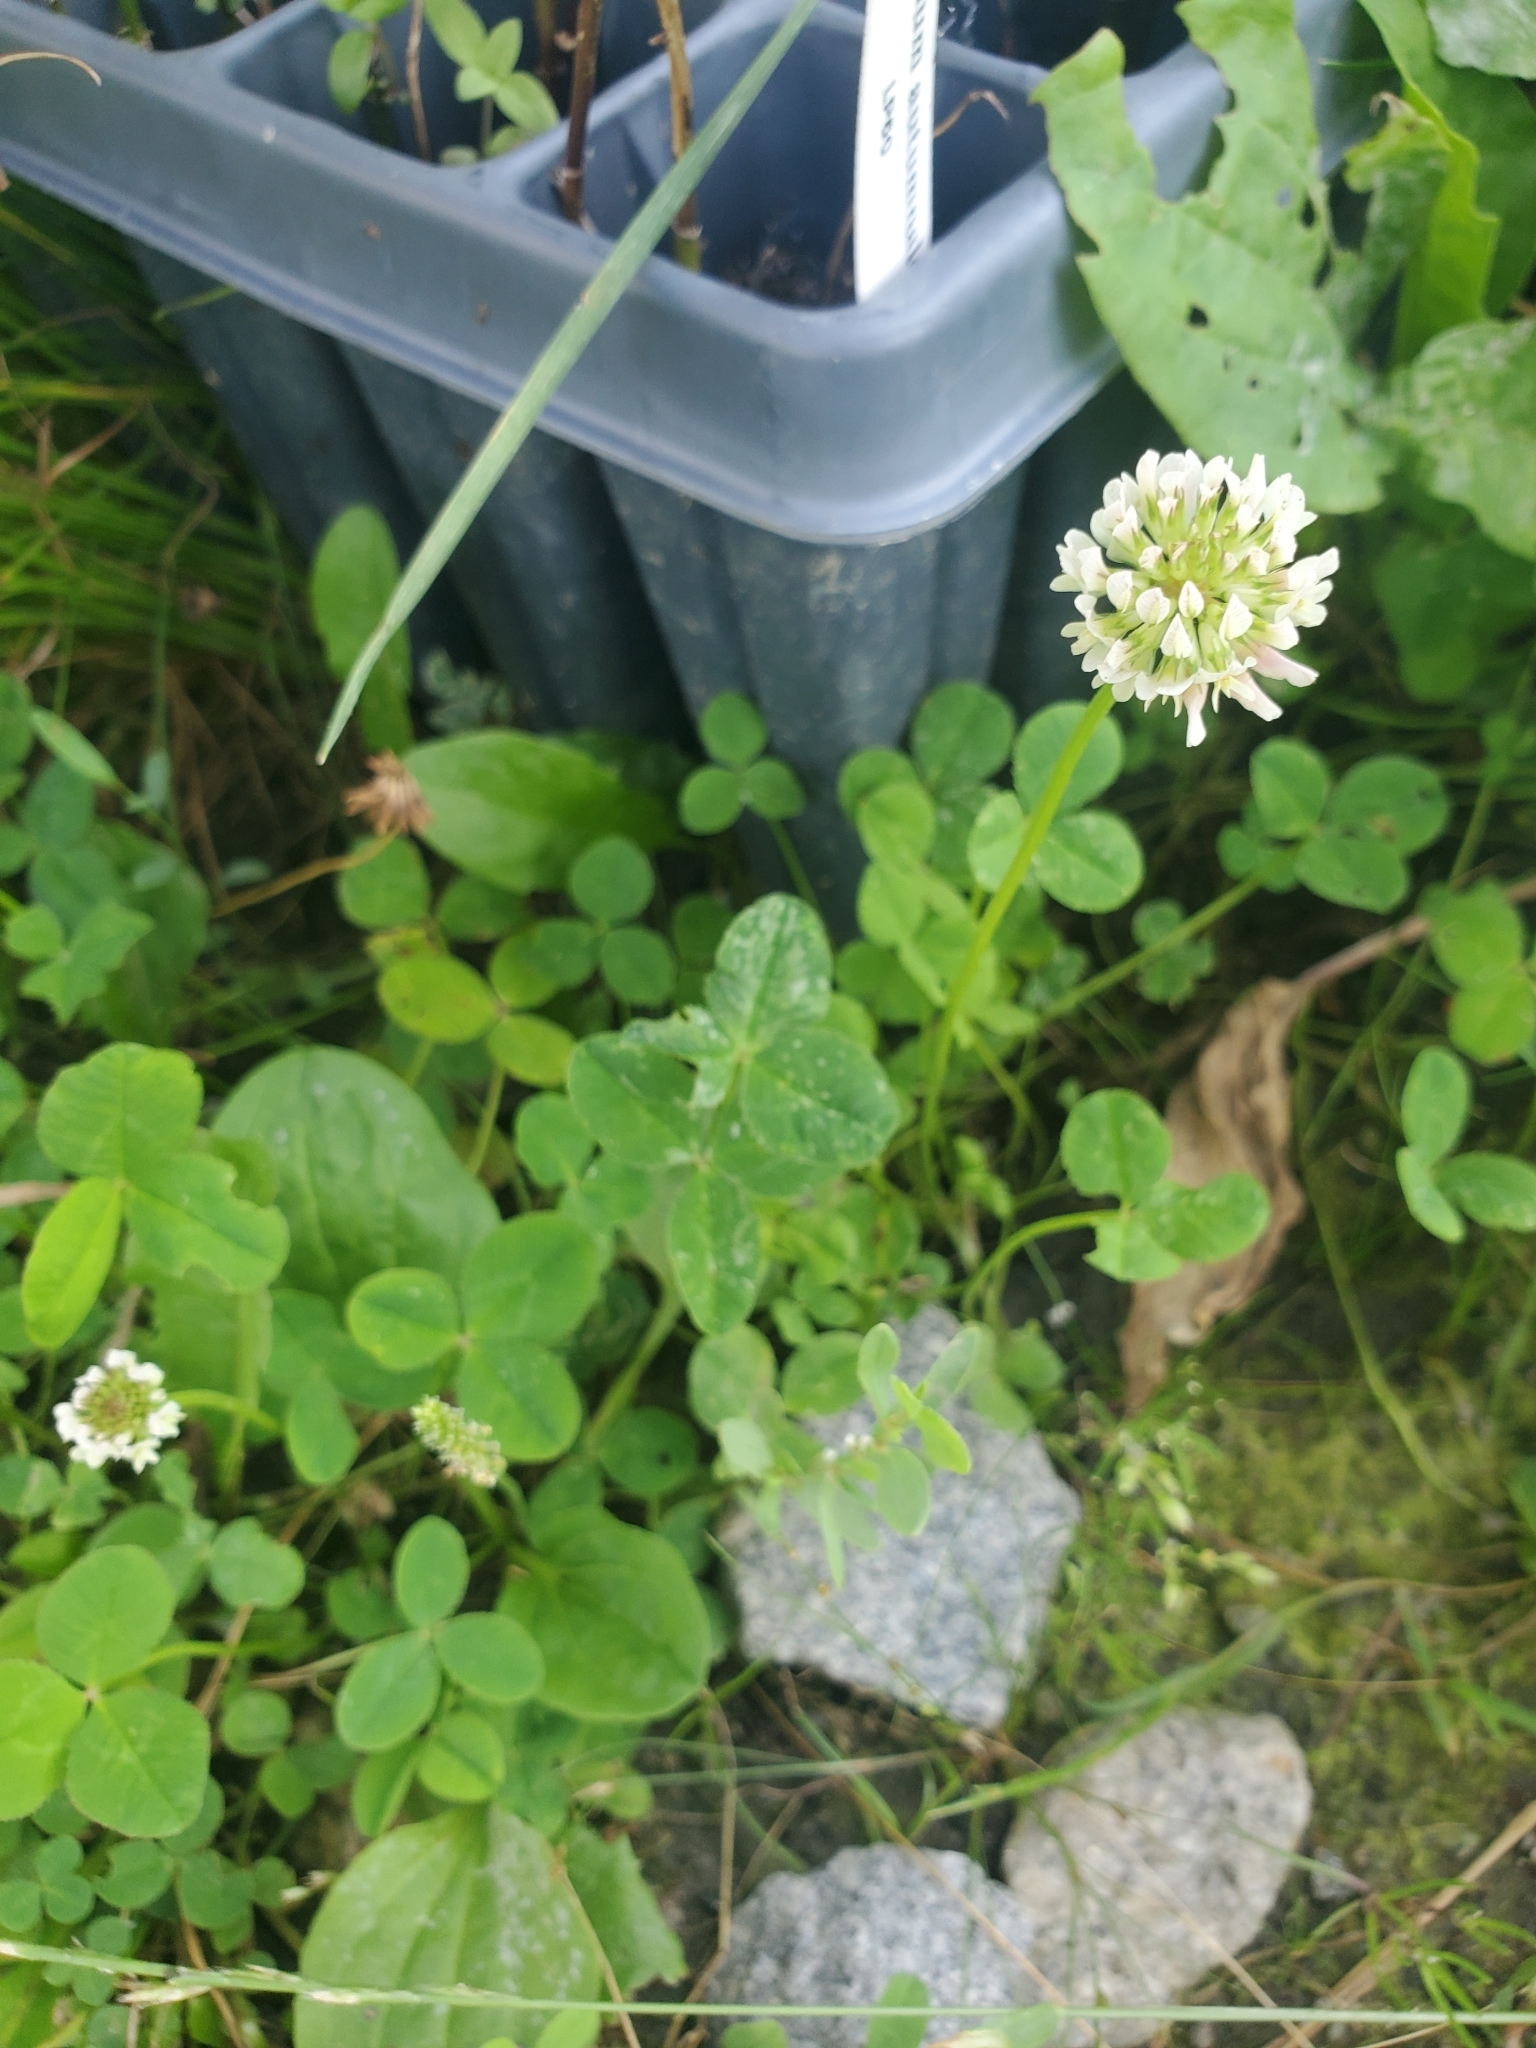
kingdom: Plantae
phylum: Tracheophyta
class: Magnoliopsida
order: Fabales
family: Fabaceae
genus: Trifolium
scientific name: Trifolium repens
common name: White clover
